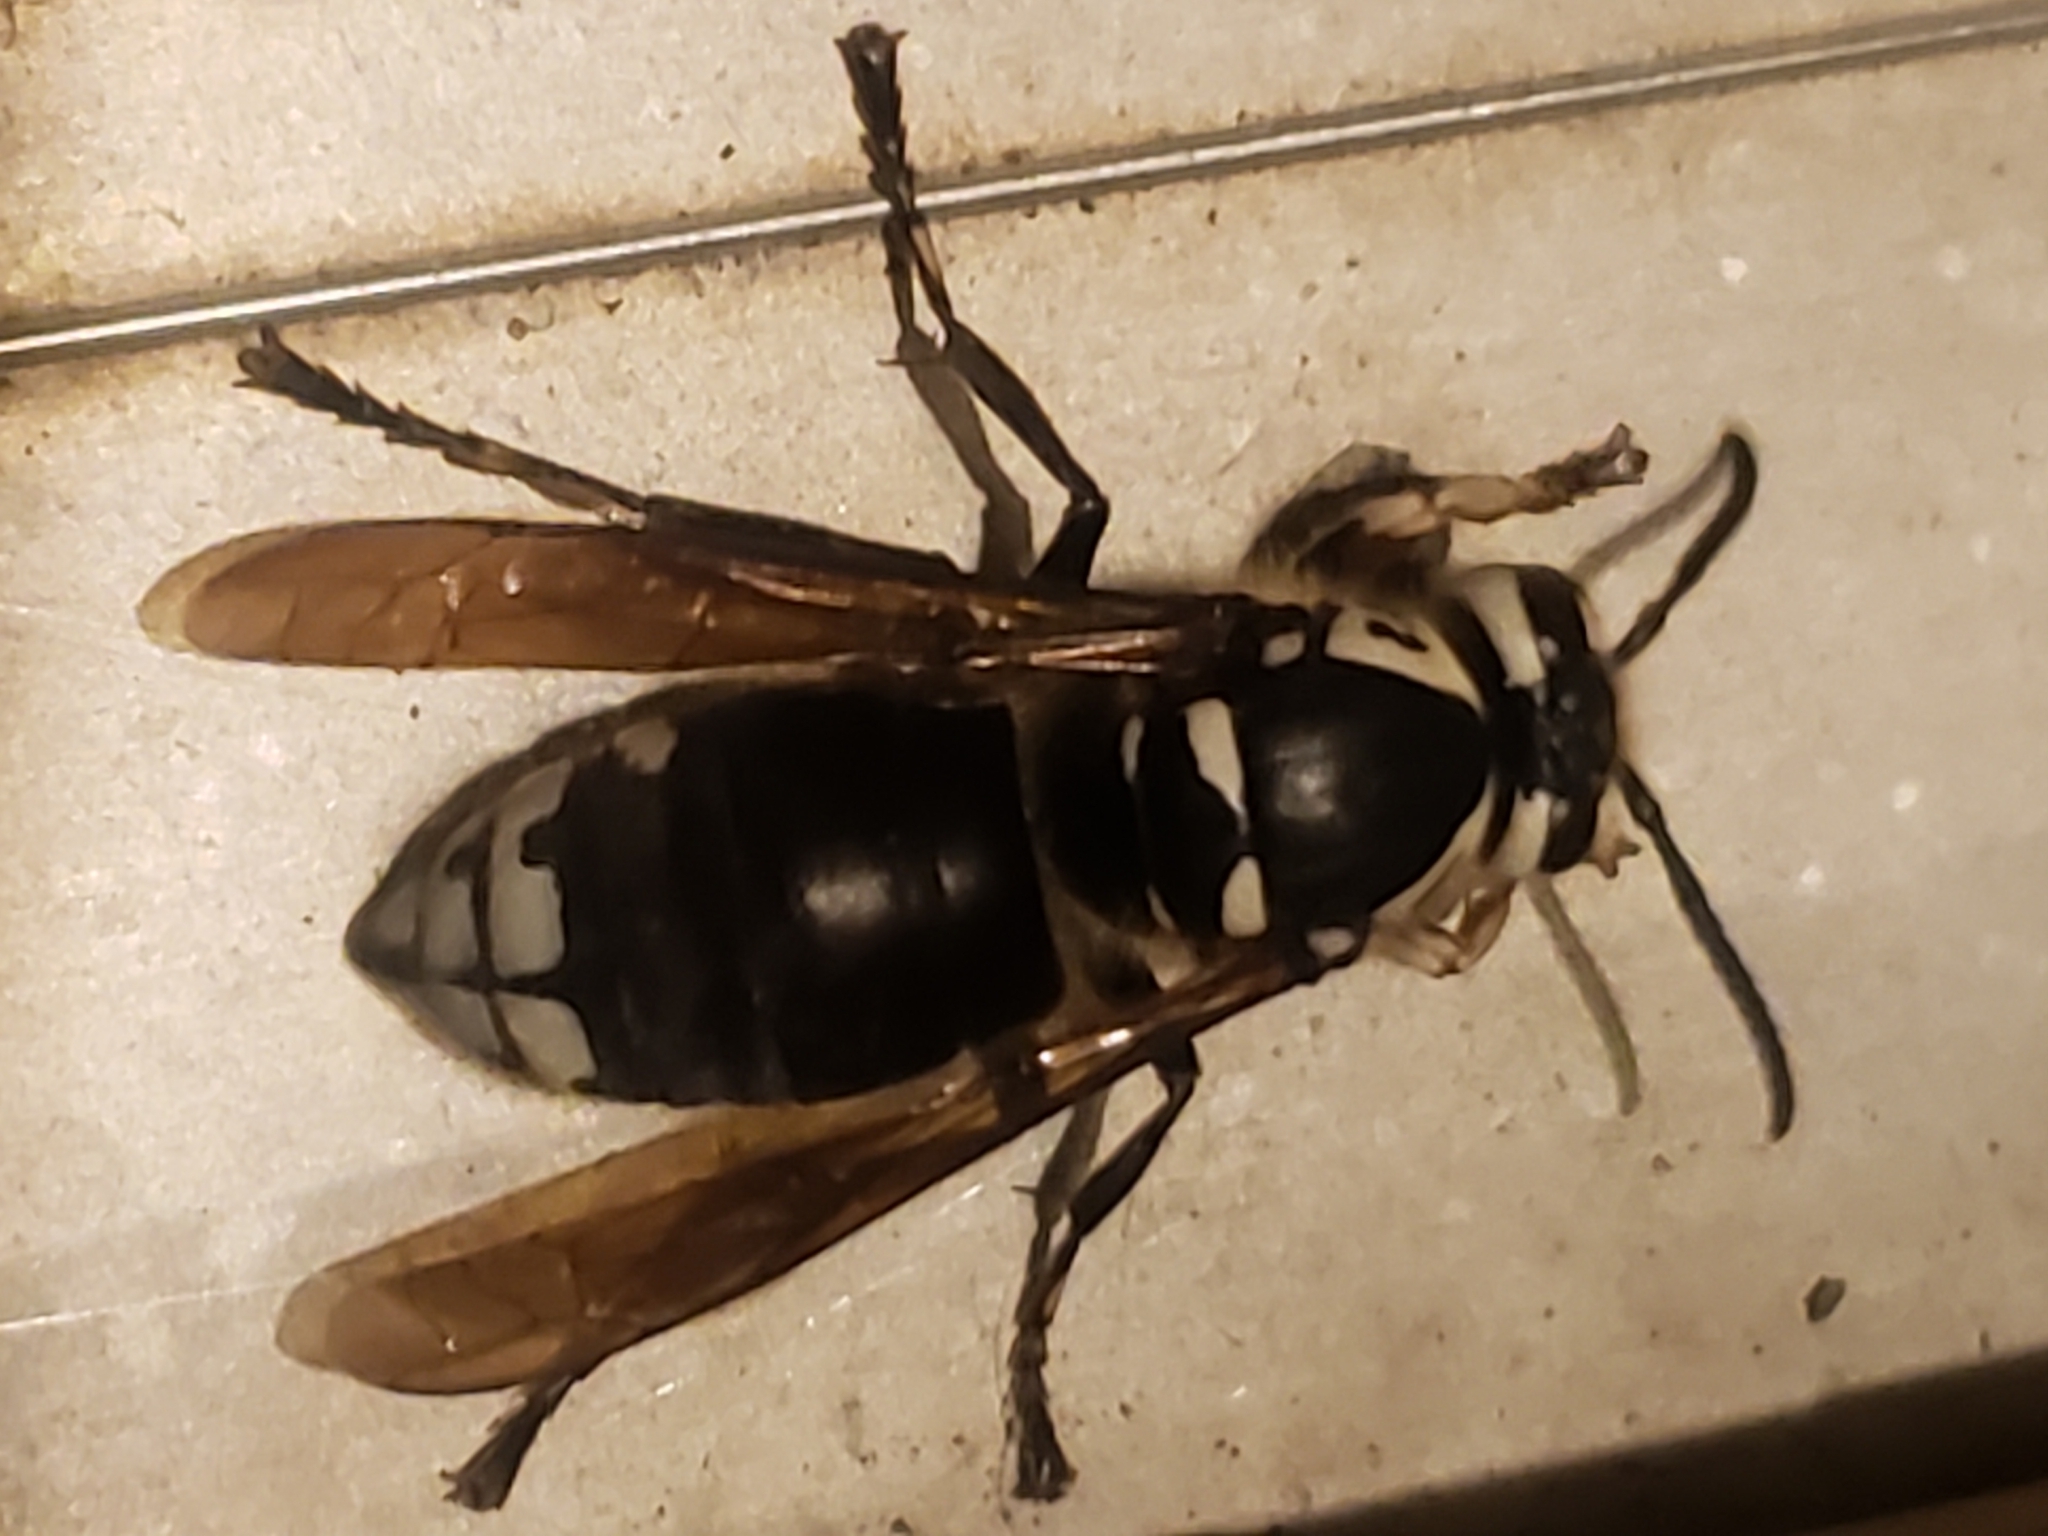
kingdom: Animalia
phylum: Arthropoda
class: Insecta
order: Hymenoptera
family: Vespidae
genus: Dolichovespula
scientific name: Dolichovespula maculata
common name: Bald-faced hornet
